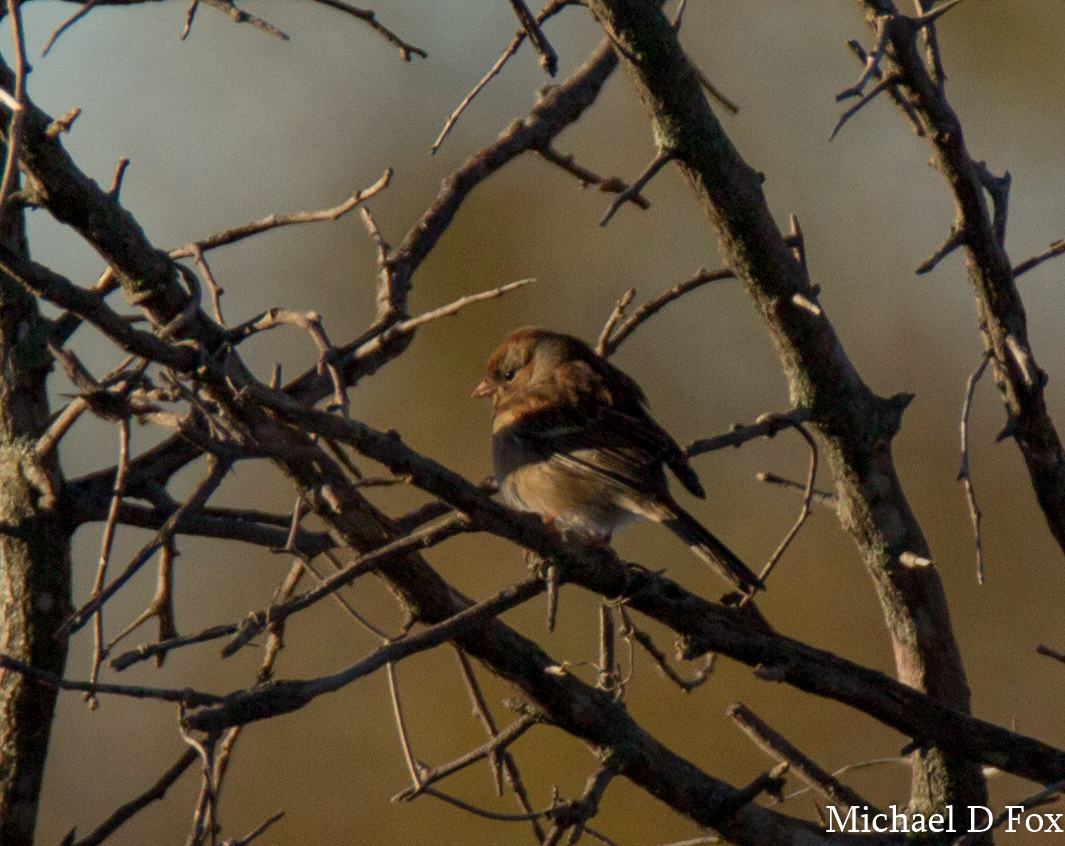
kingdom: Animalia
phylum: Chordata
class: Aves
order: Passeriformes
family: Passerellidae
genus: Spizella
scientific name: Spizella pusilla
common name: Field sparrow
